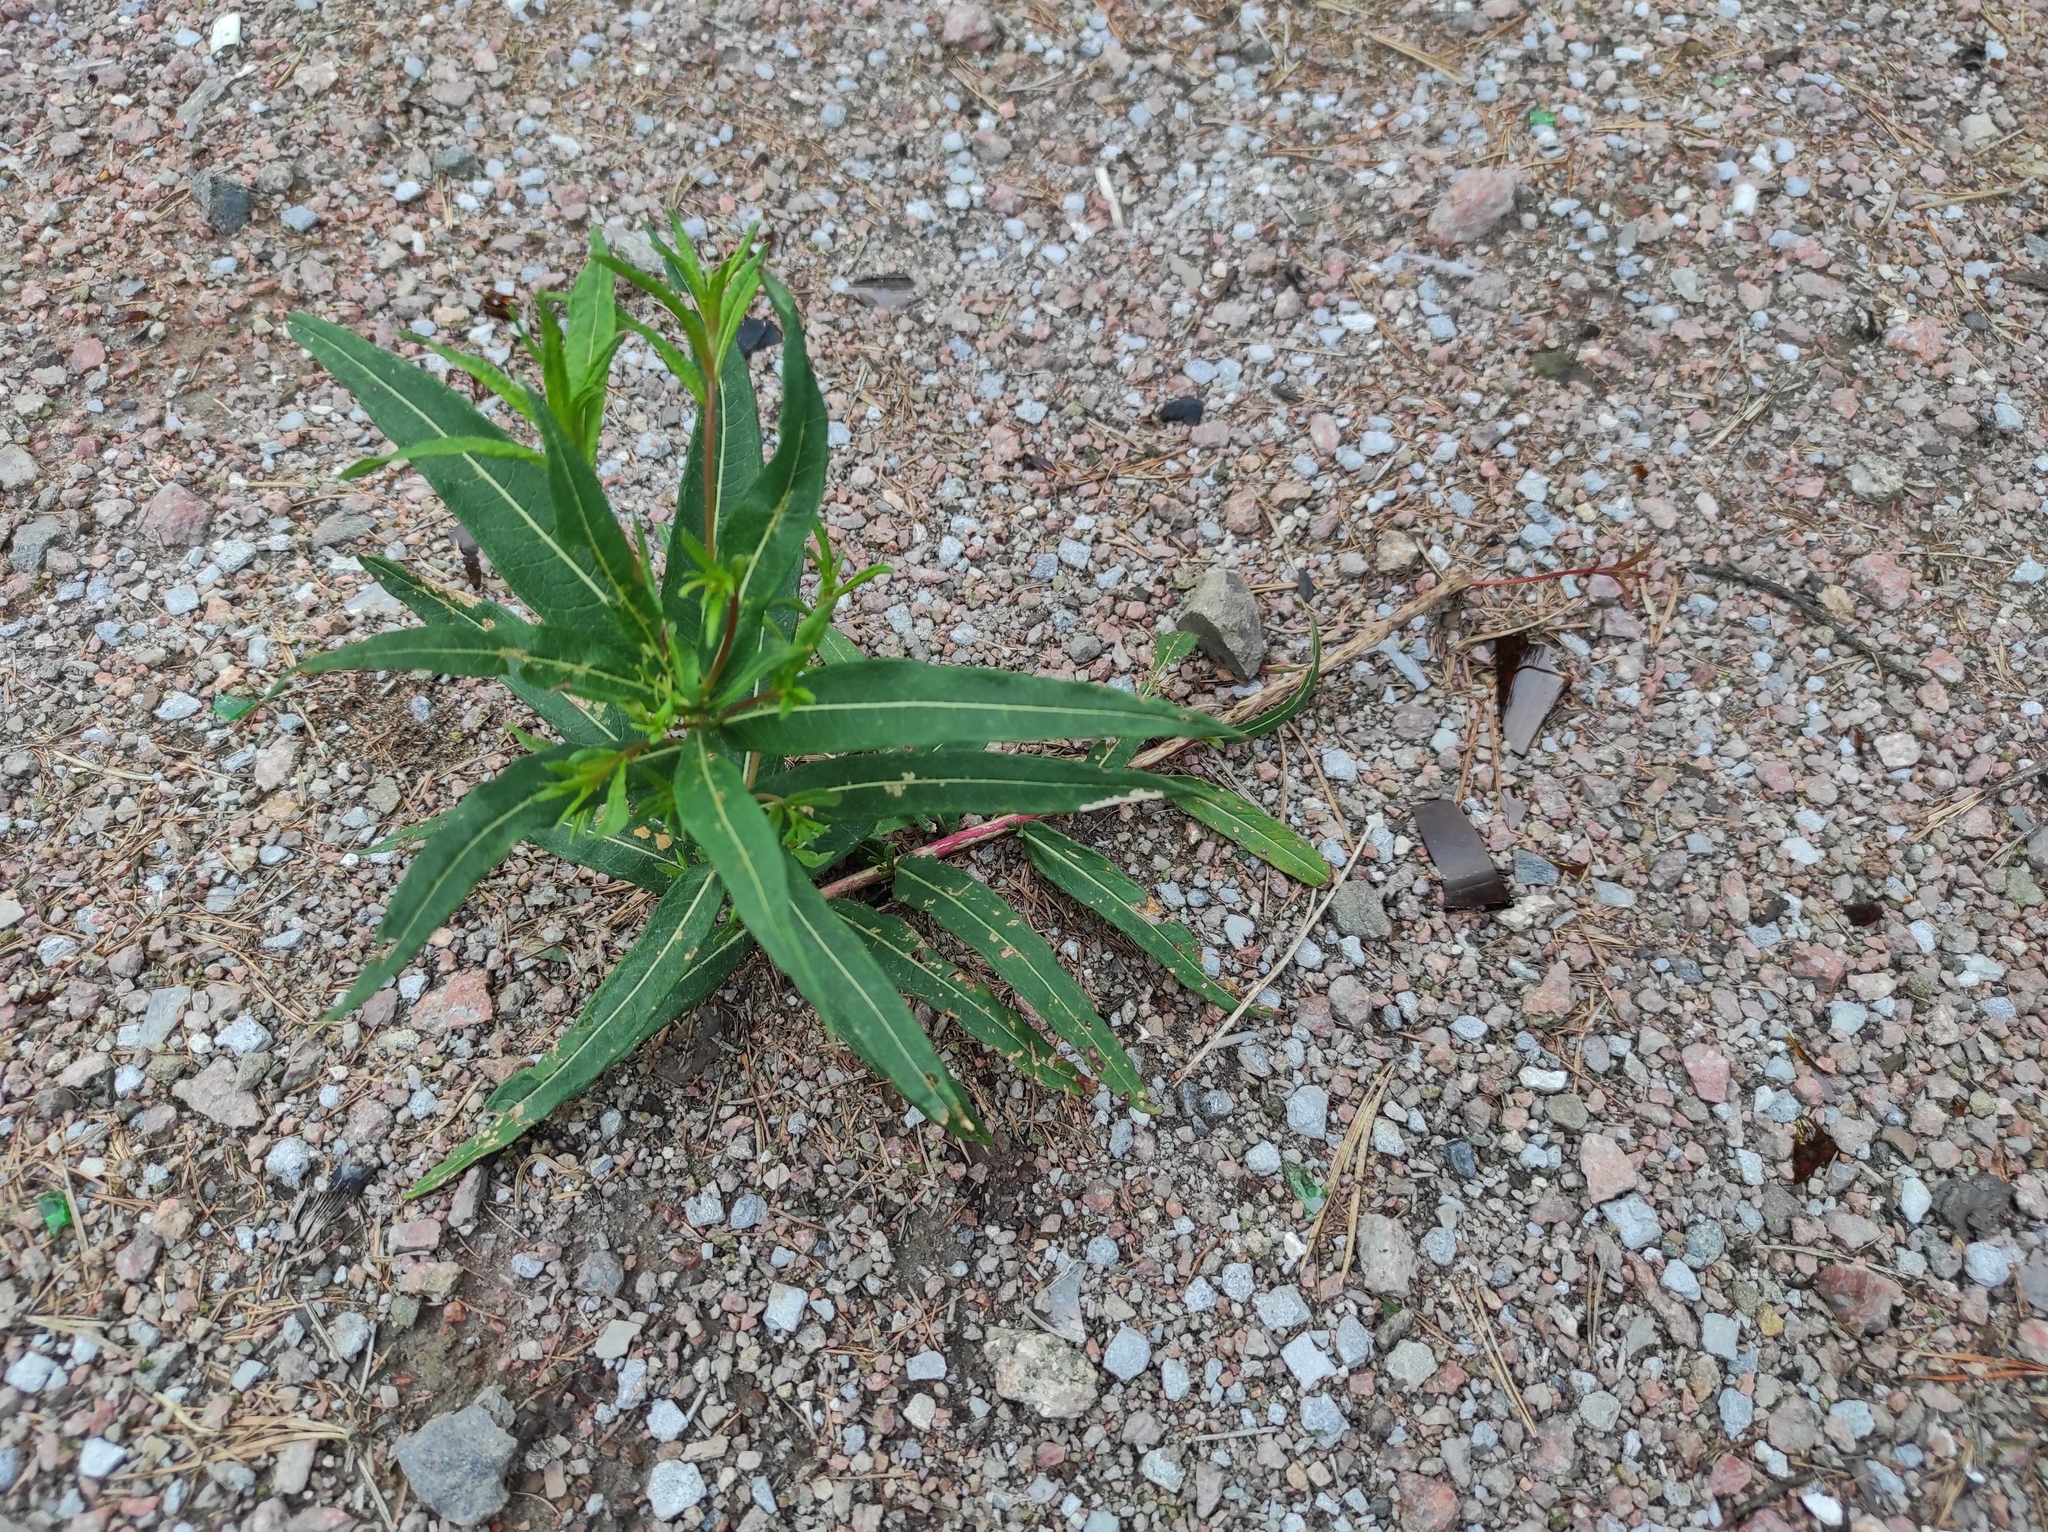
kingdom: Plantae
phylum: Tracheophyta
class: Magnoliopsida
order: Myrtales
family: Onagraceae
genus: Chamaenerion
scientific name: Chamaenerion angustifolium
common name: Fireweed
